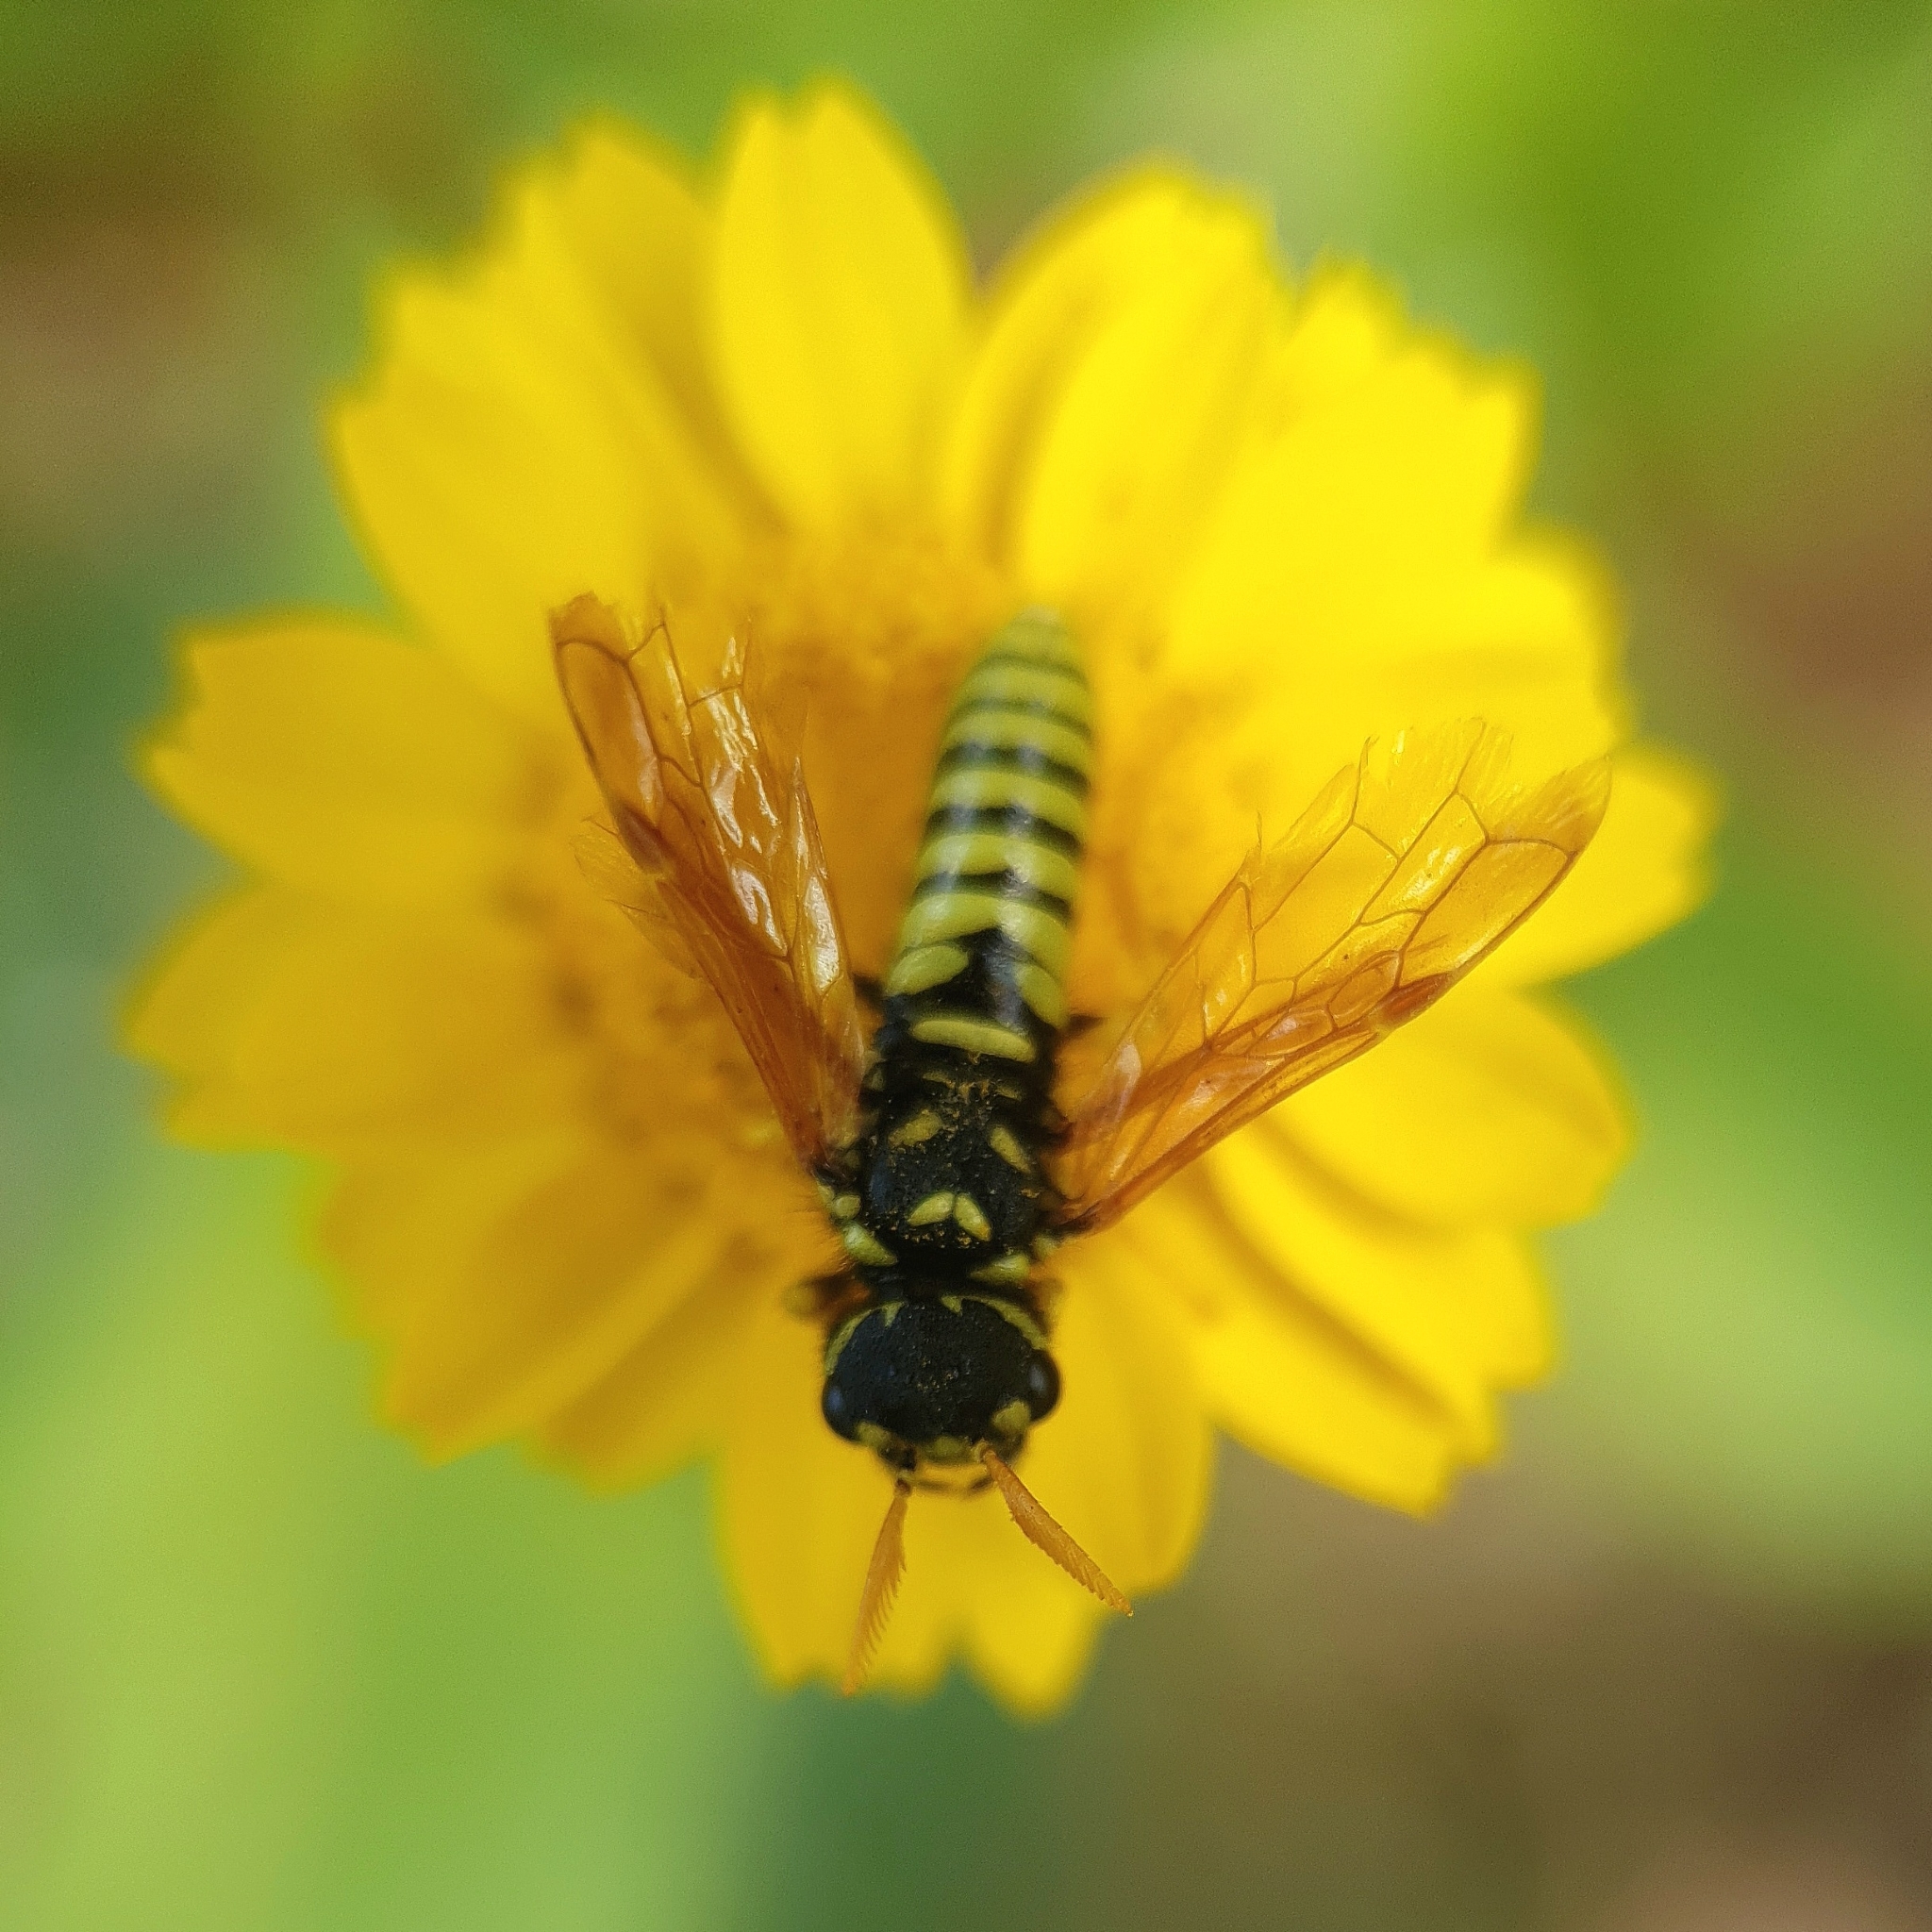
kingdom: Animalia
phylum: Arthropoda
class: Insecta
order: Hymenoptera
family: Megalodontesidae
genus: Megalodontes
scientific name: Megalodontes
